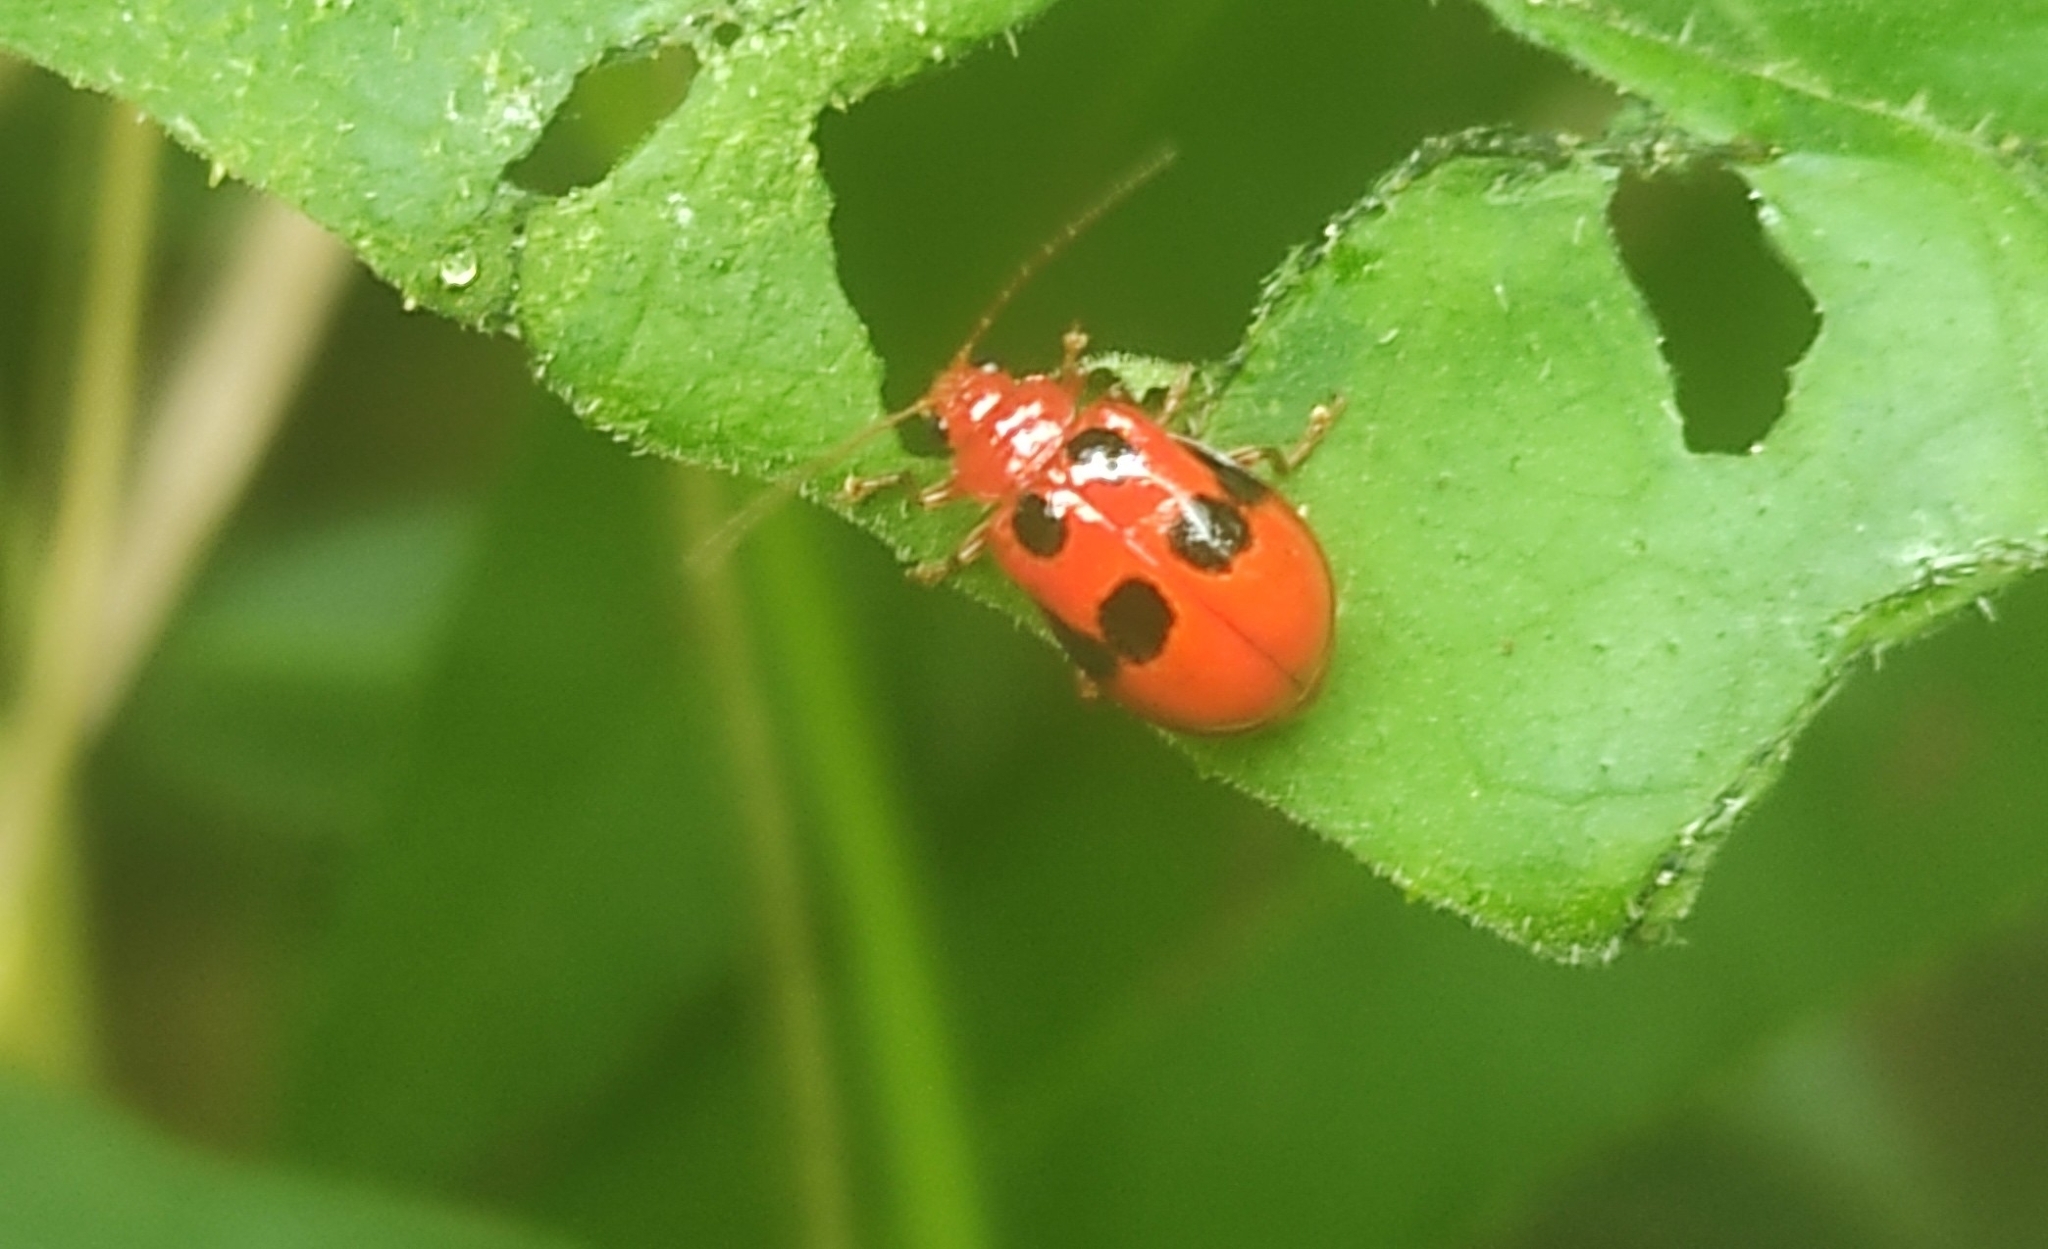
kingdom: Animalia
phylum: Arthropoda
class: Insecta
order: Coleoptera
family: Chrysomelidae
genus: Aulacophora
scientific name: Aulacophora
